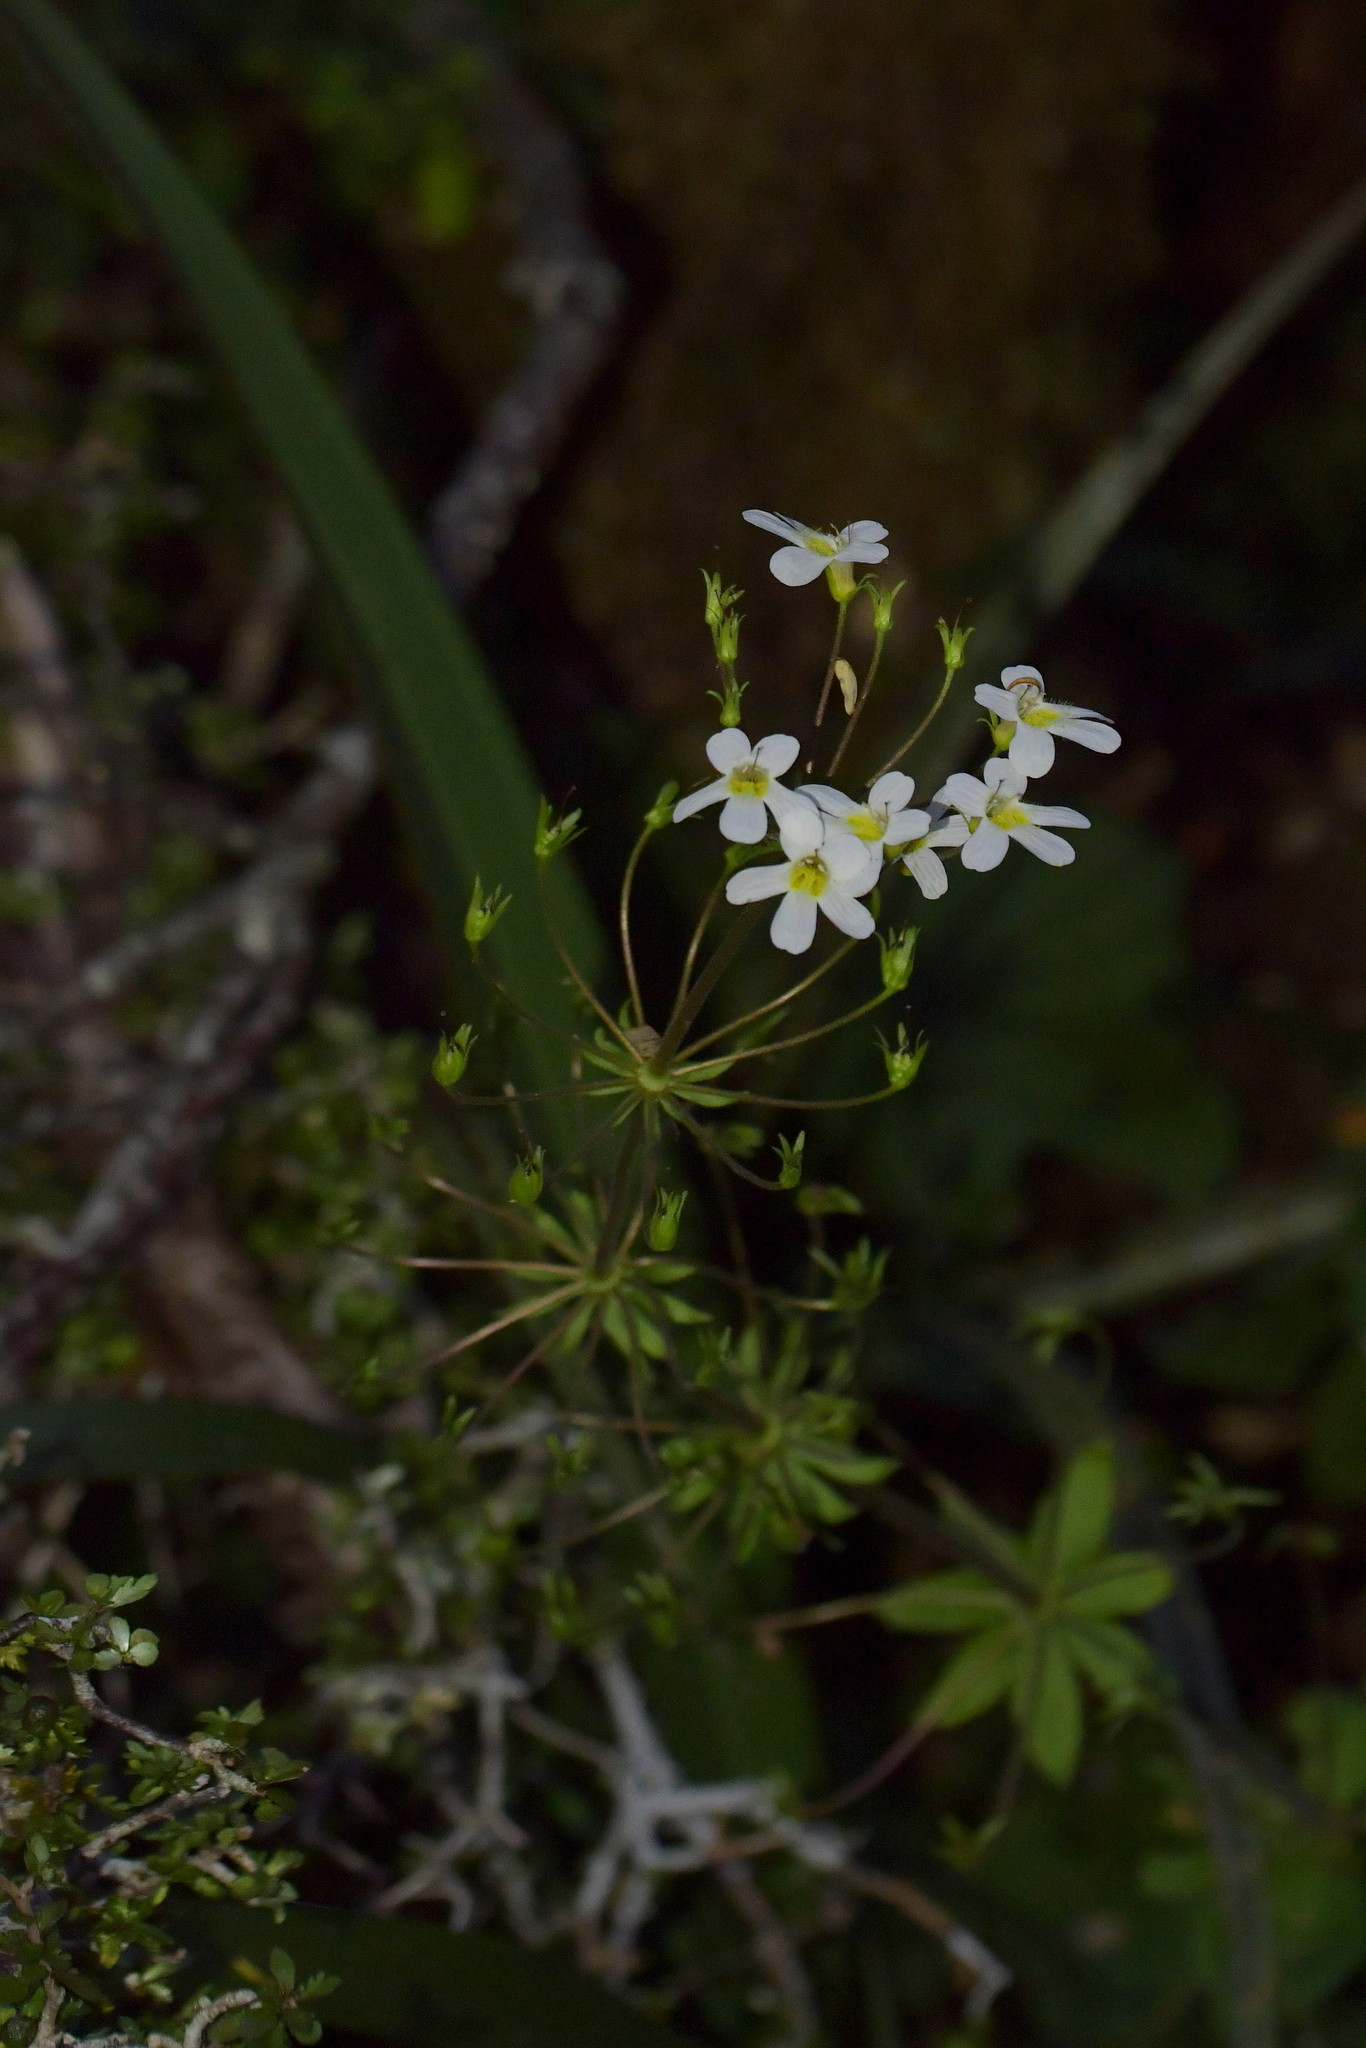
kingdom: Plantae
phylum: Tracheophyta
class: Magnoliopsida
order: Lamiales
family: Plantaginaceae
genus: Ourisia
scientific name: Ourisia macrophylla
